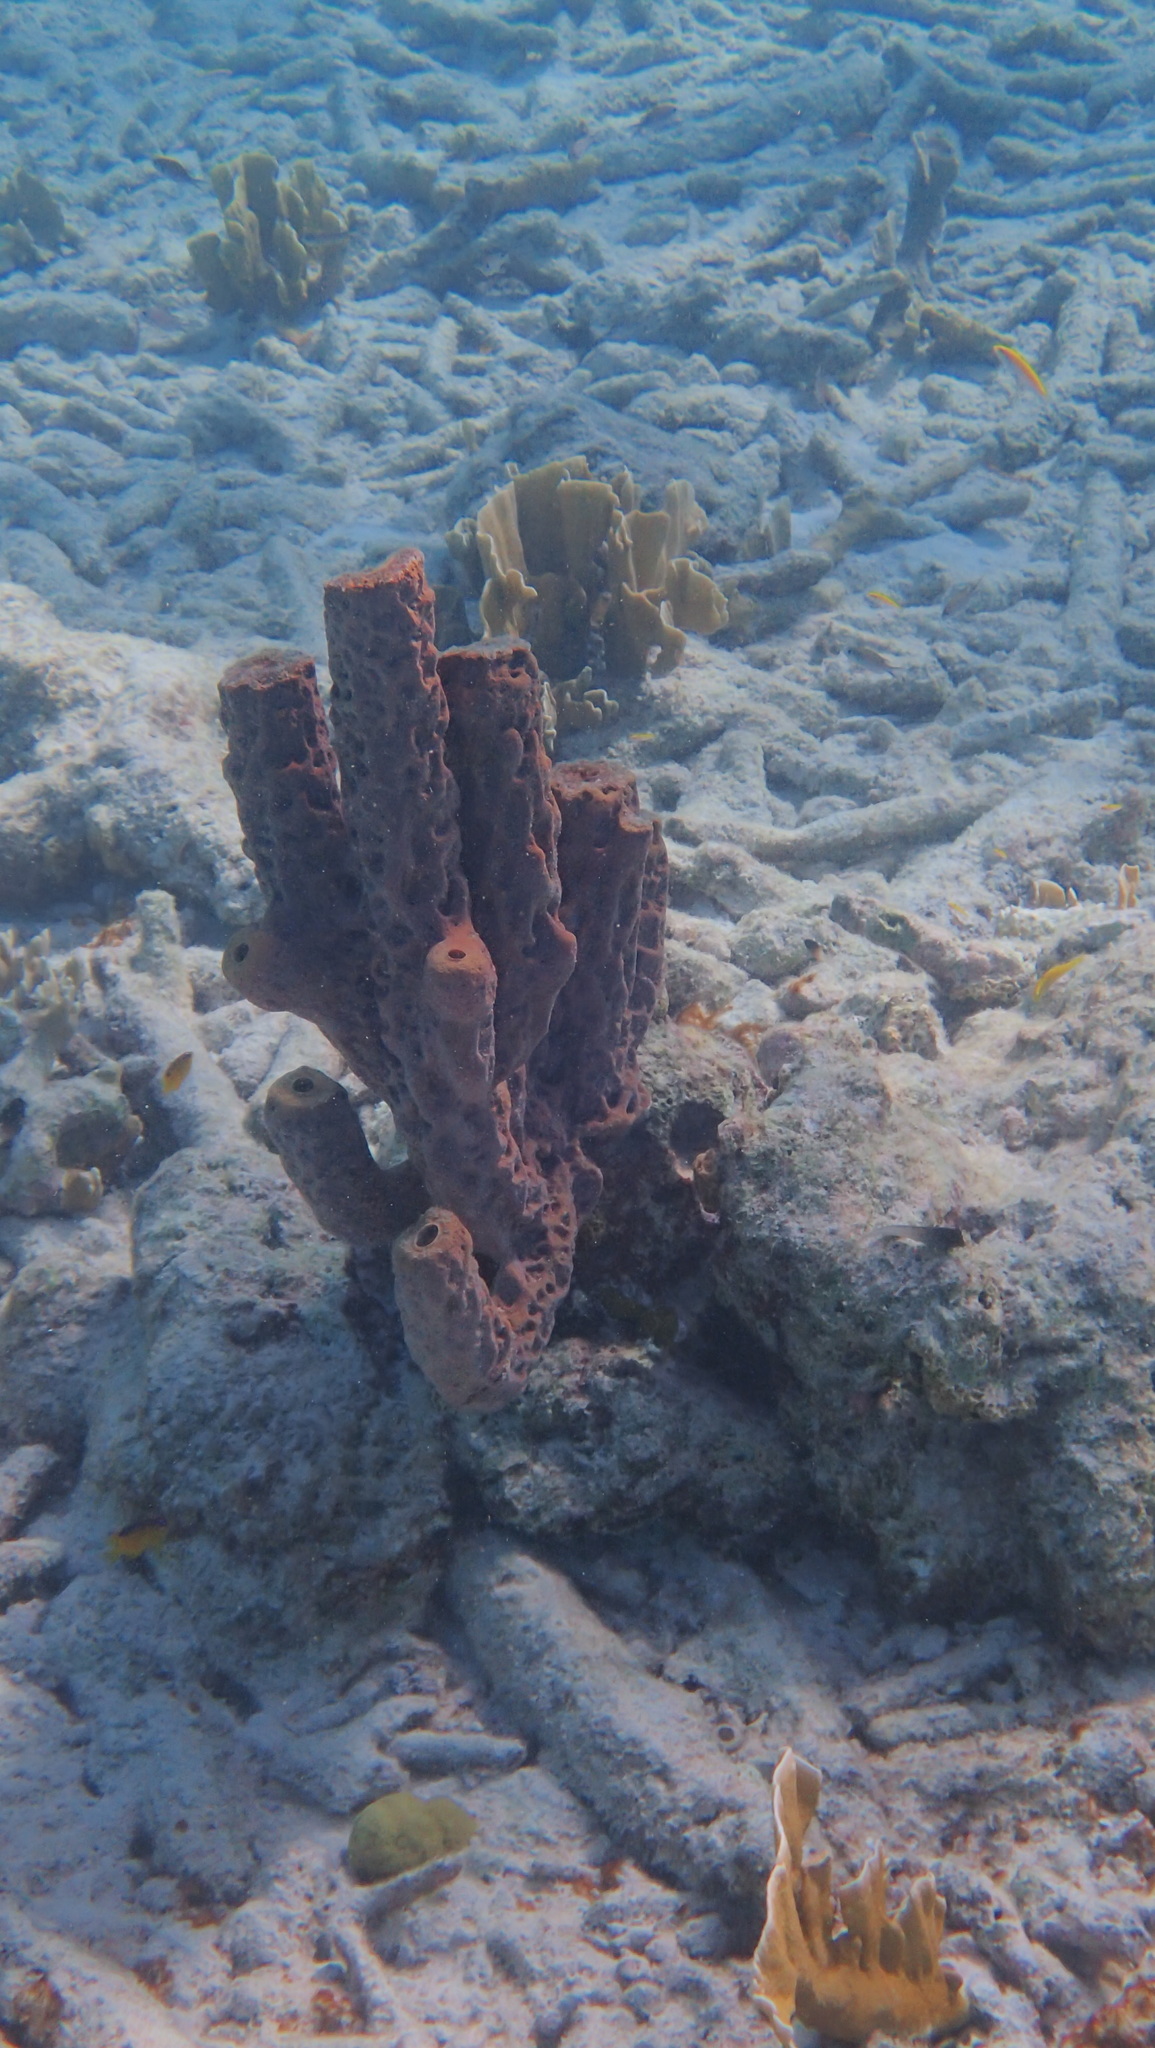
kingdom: Animalia
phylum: Porifera
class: Demospongiae
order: Verongiida
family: Aplysinidae
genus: Aplysina
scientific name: Aplysina archeri
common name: Stove-pipe sponge
